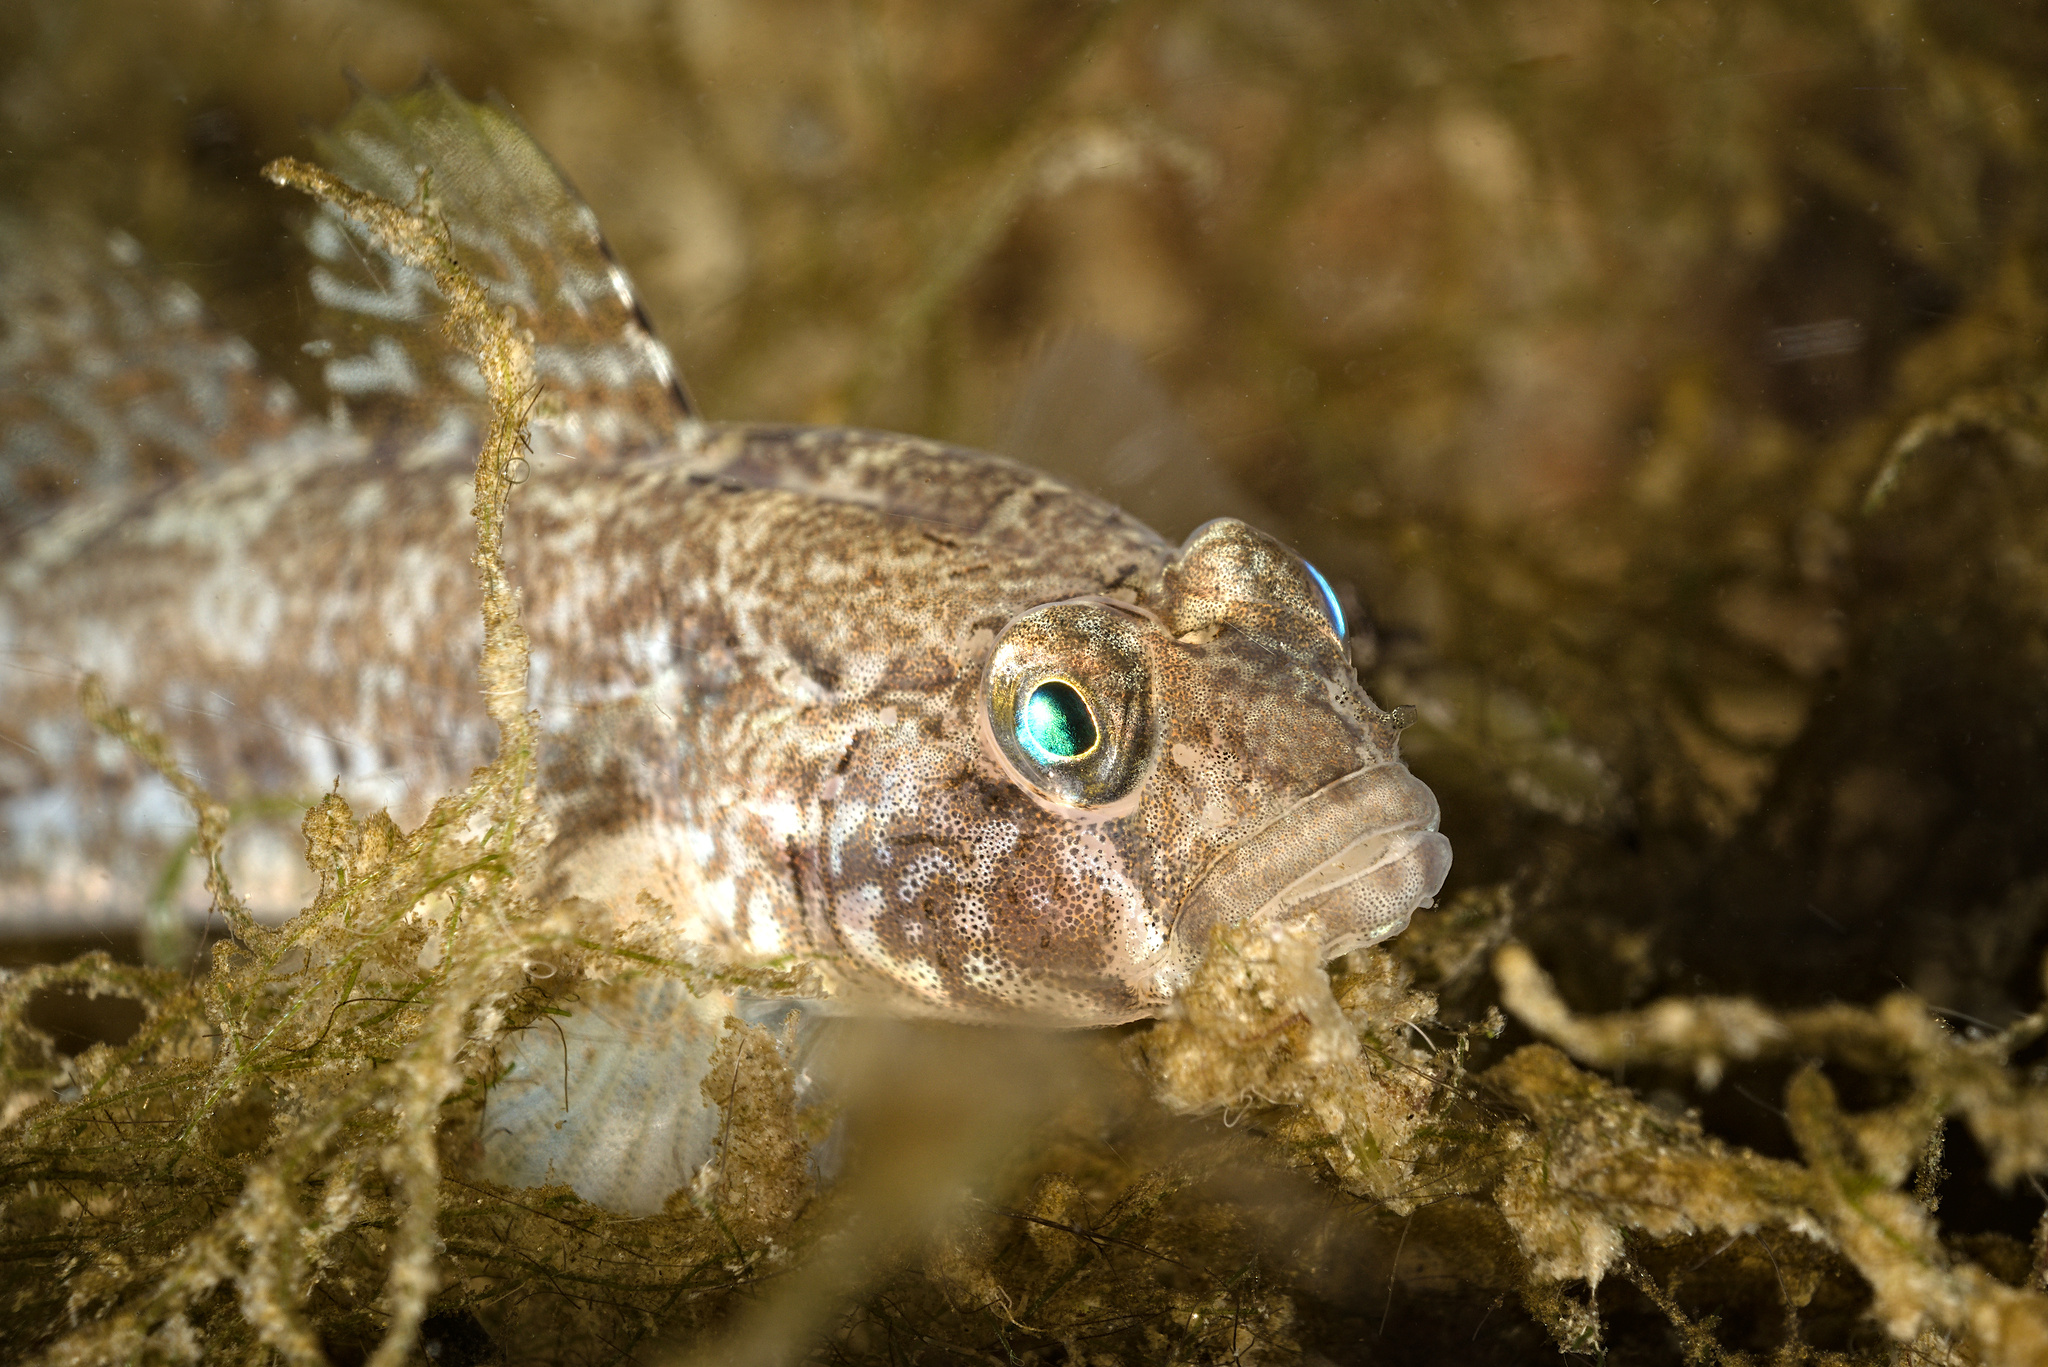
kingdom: Animalia
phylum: Chordata
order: Perciformes
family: Gobiidae
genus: Gobius
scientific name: Gobius niger
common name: Black goby
